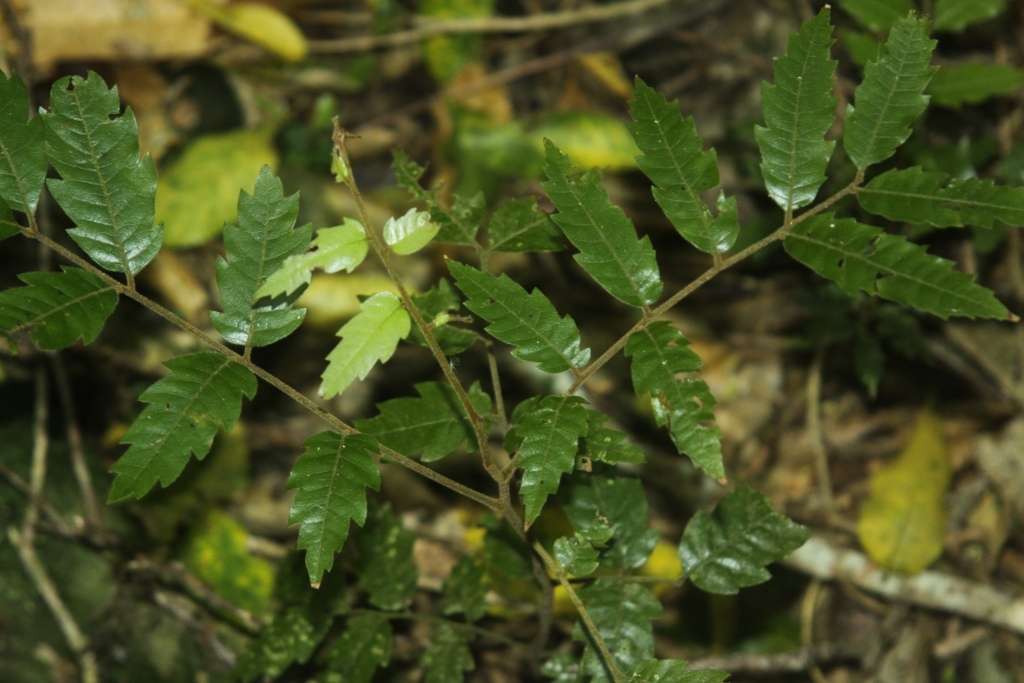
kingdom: Plantae
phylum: Tracheophyta
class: Magnoliopsida
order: Sapindales
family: Sapindaceae
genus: Alectryon
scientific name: Alectryon excelsus
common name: Three kings titoki
